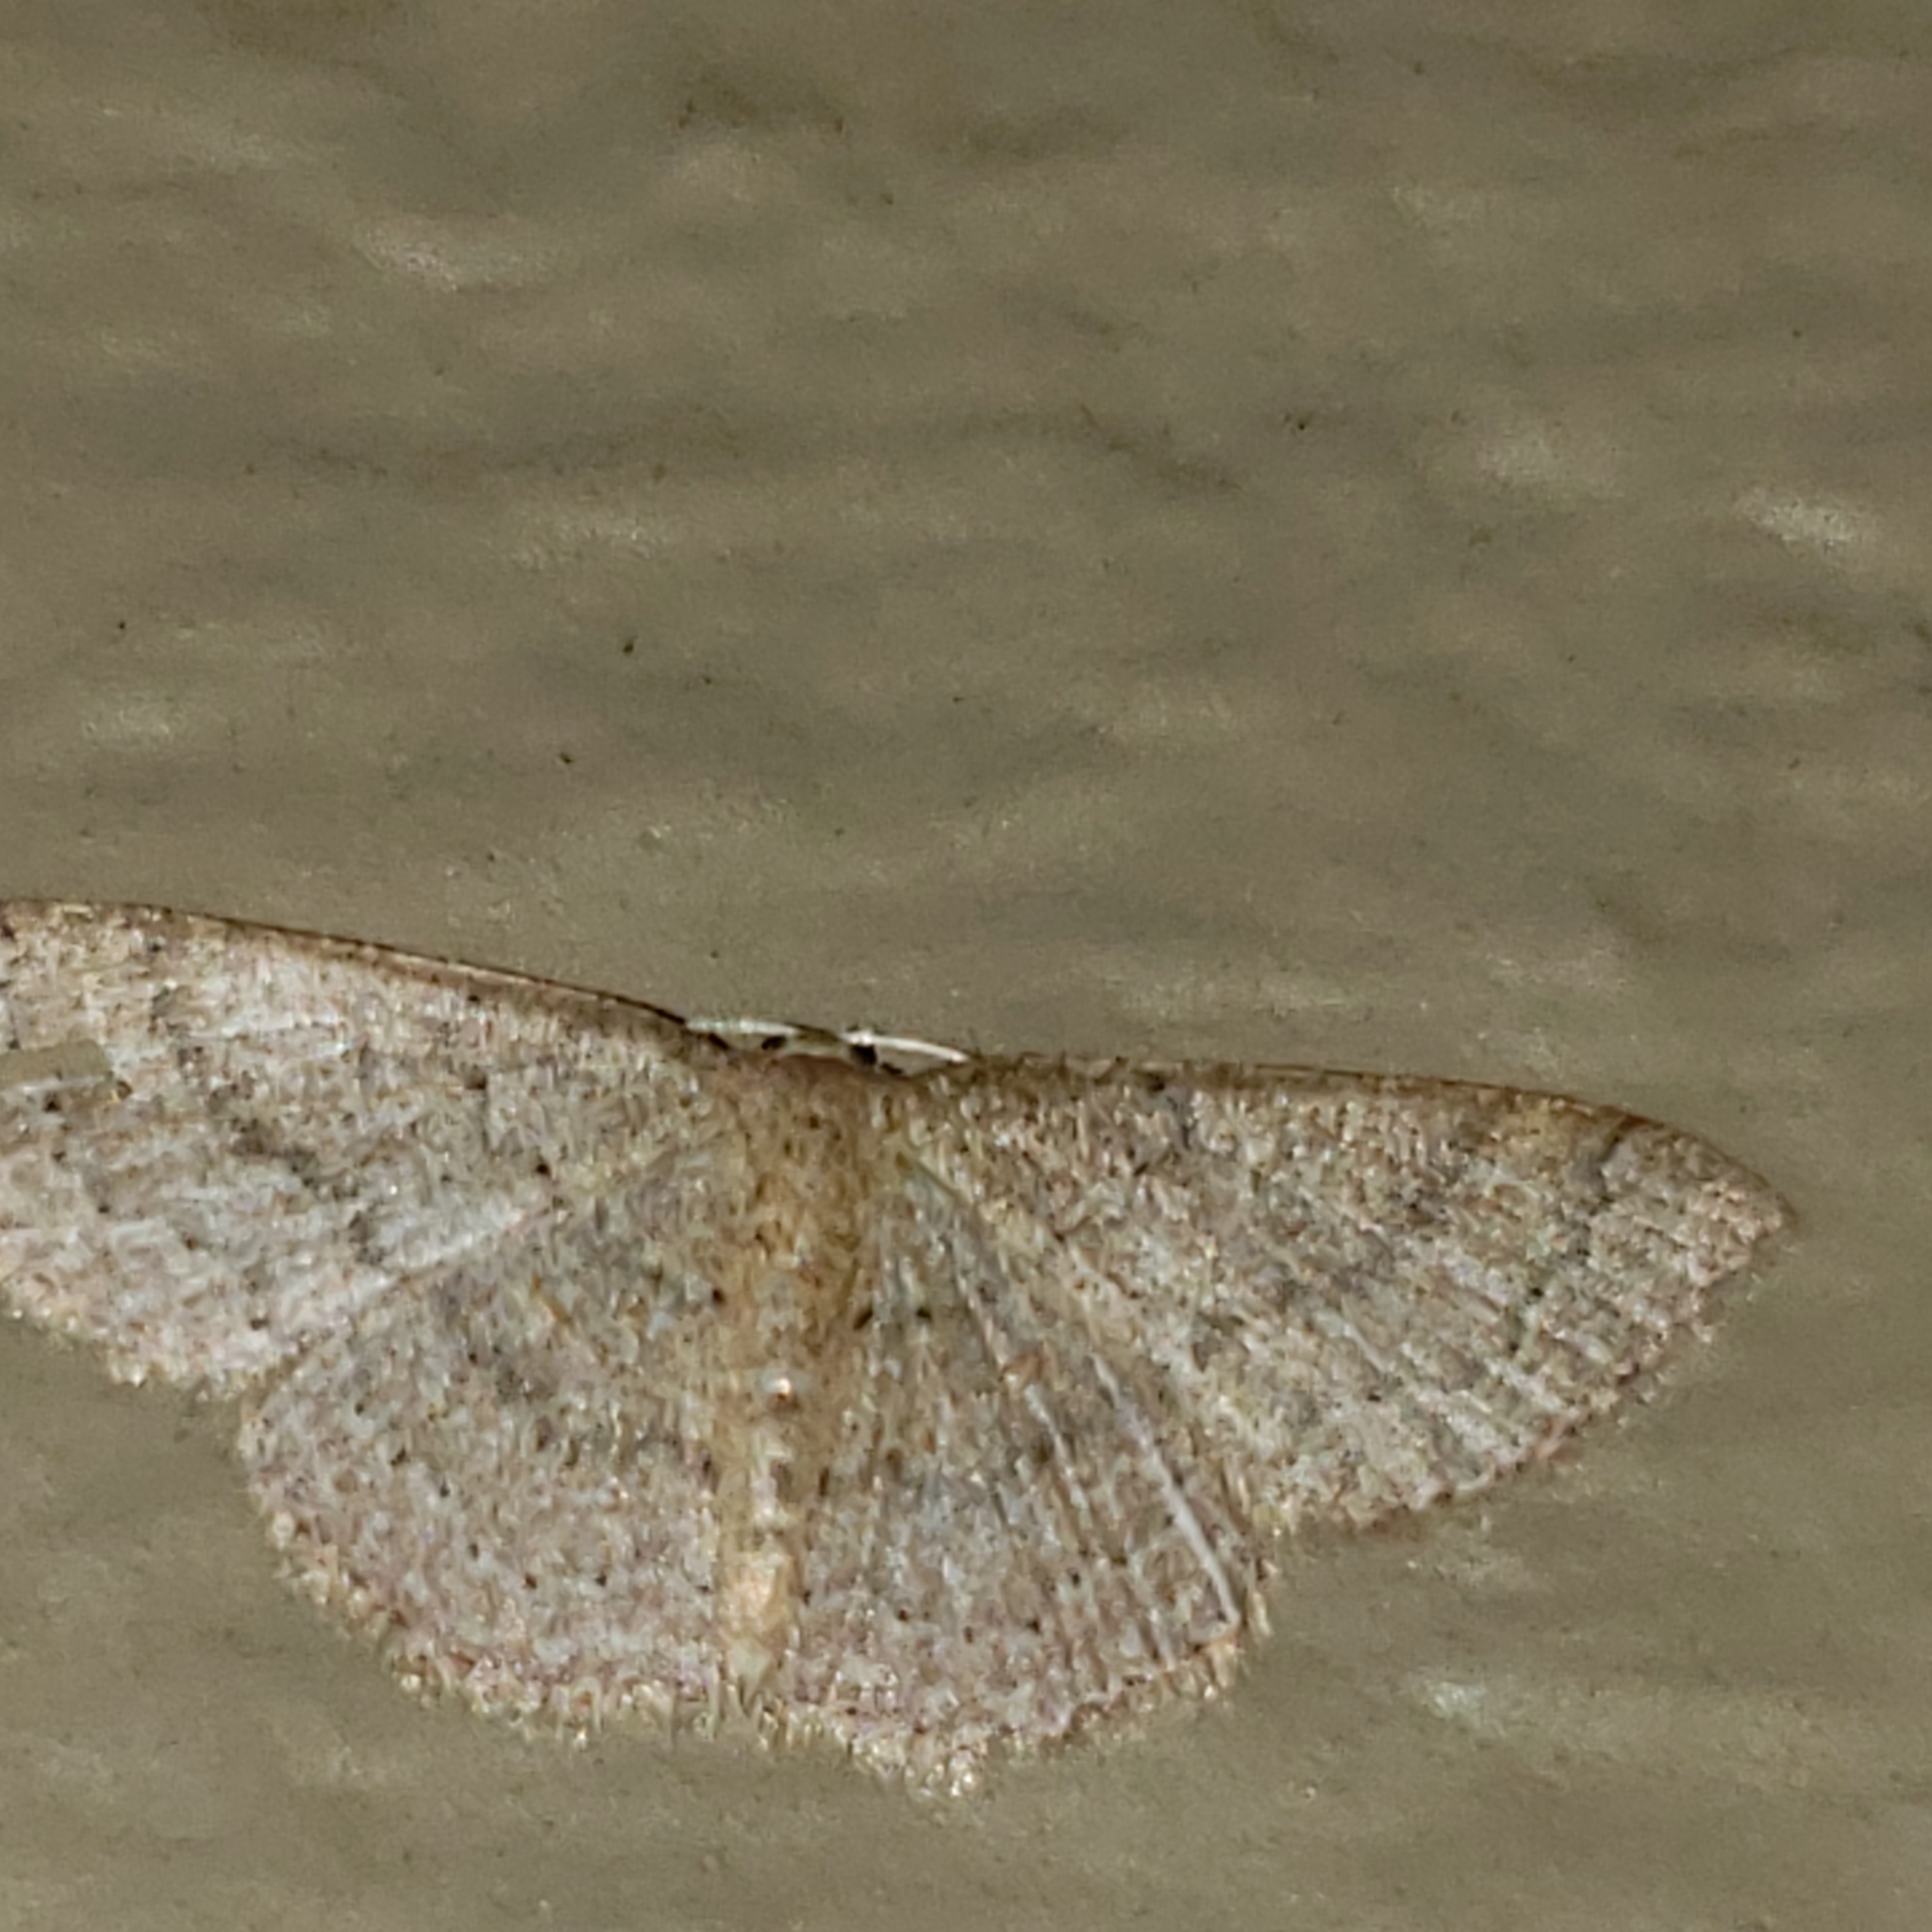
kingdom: Animalia
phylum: Arthropoda
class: Insecta
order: Lepidoptera
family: Geometridae
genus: Pleuroprucha
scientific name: Pleuroprucha insulsaria
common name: Common tan wave
